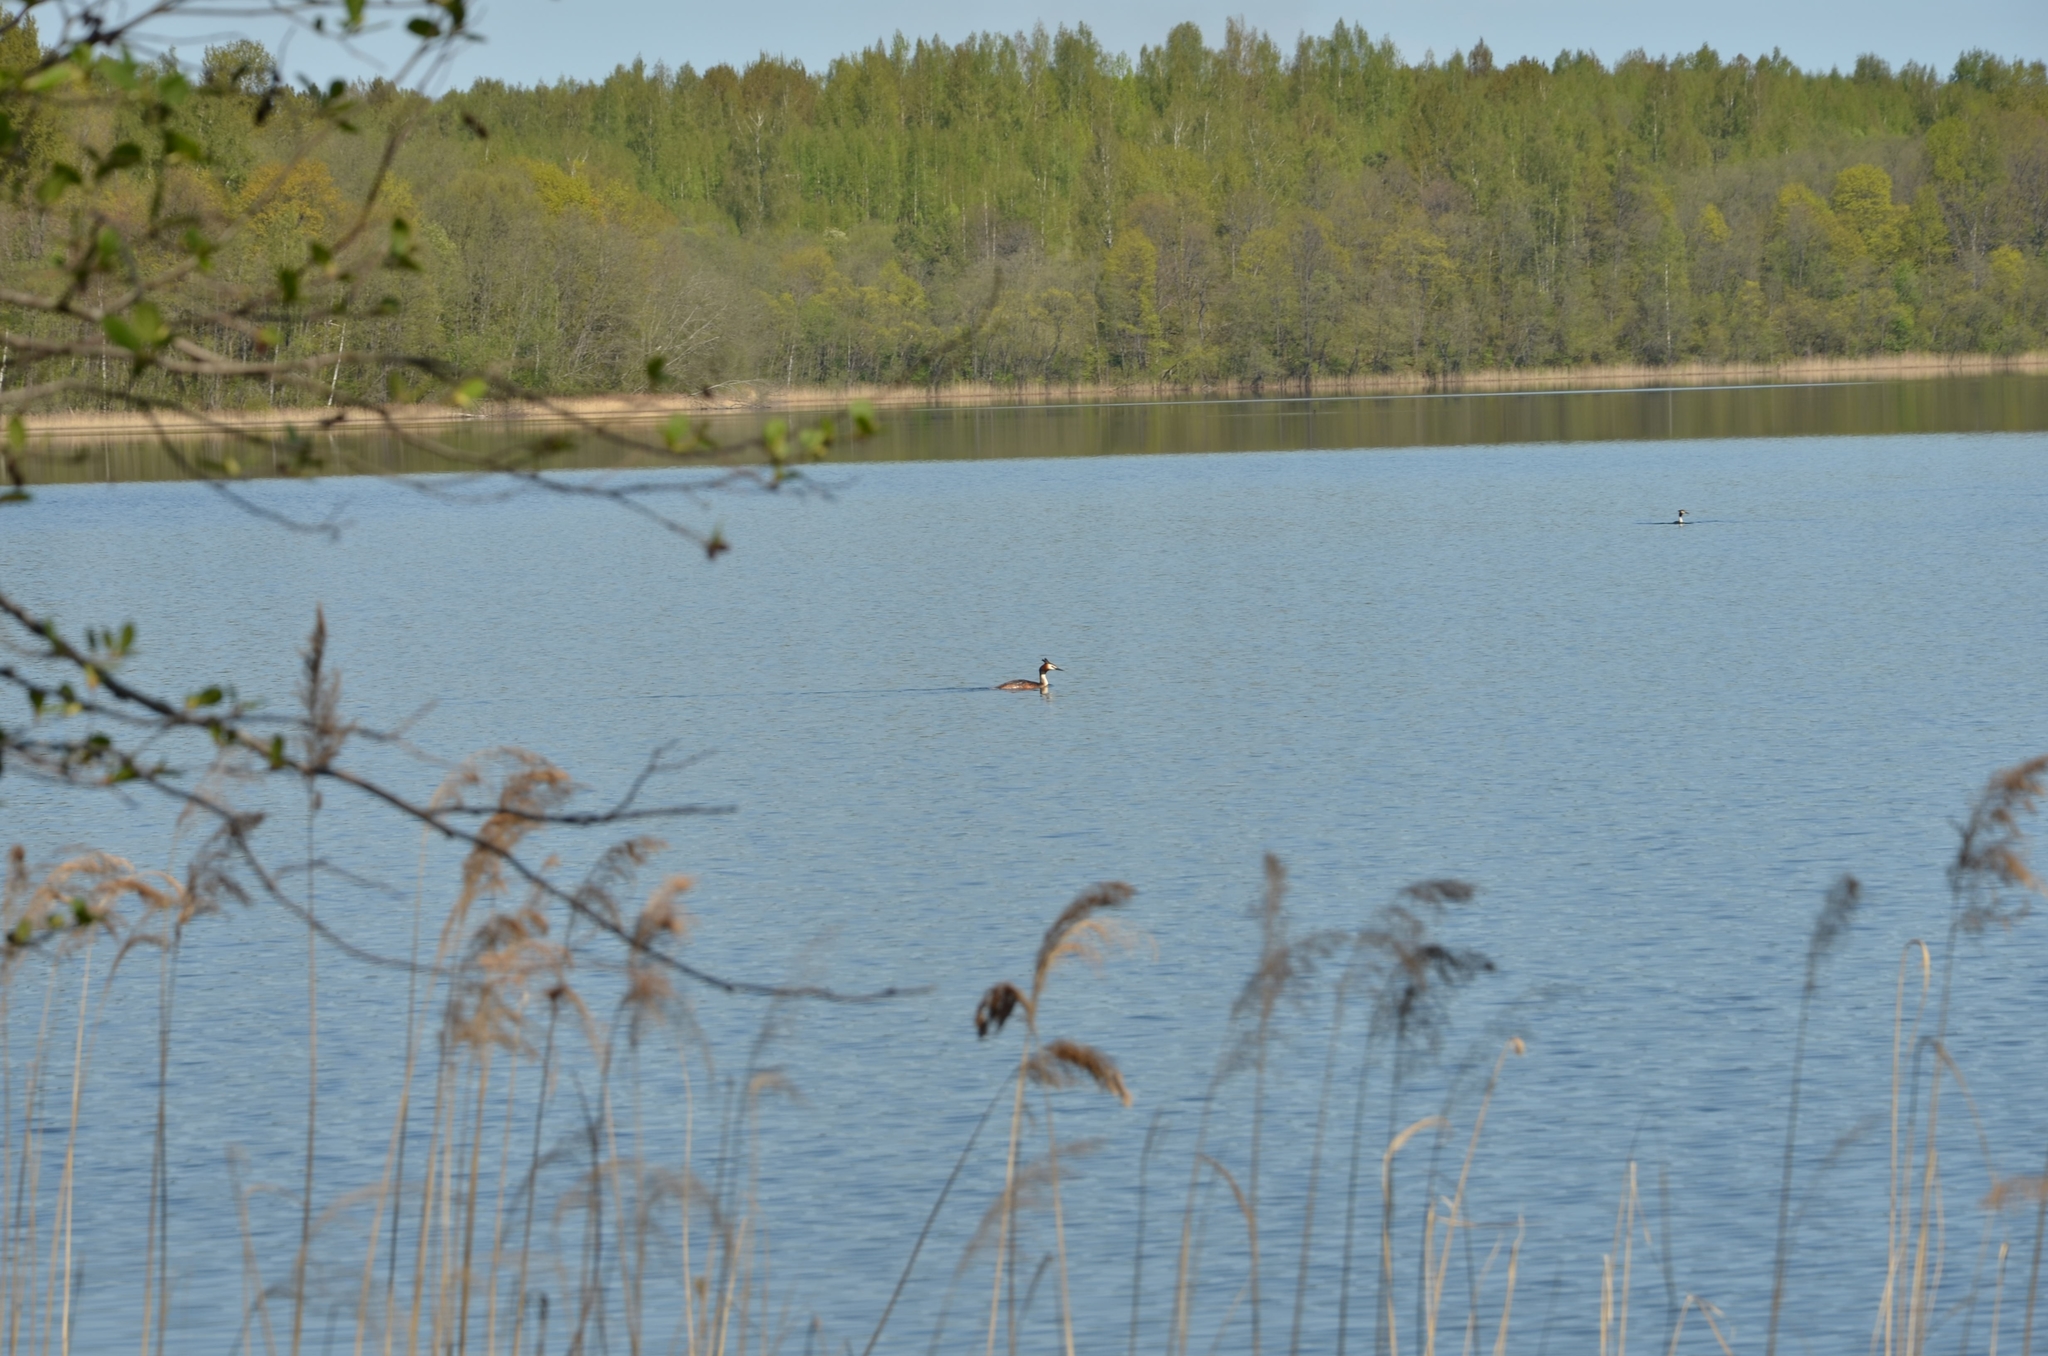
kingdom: Animalia
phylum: Chordata
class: Aves
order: Podicipediformes
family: Podicipedidae
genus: Podiceps
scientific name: Podiceps cristatus
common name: Great crested grebe
